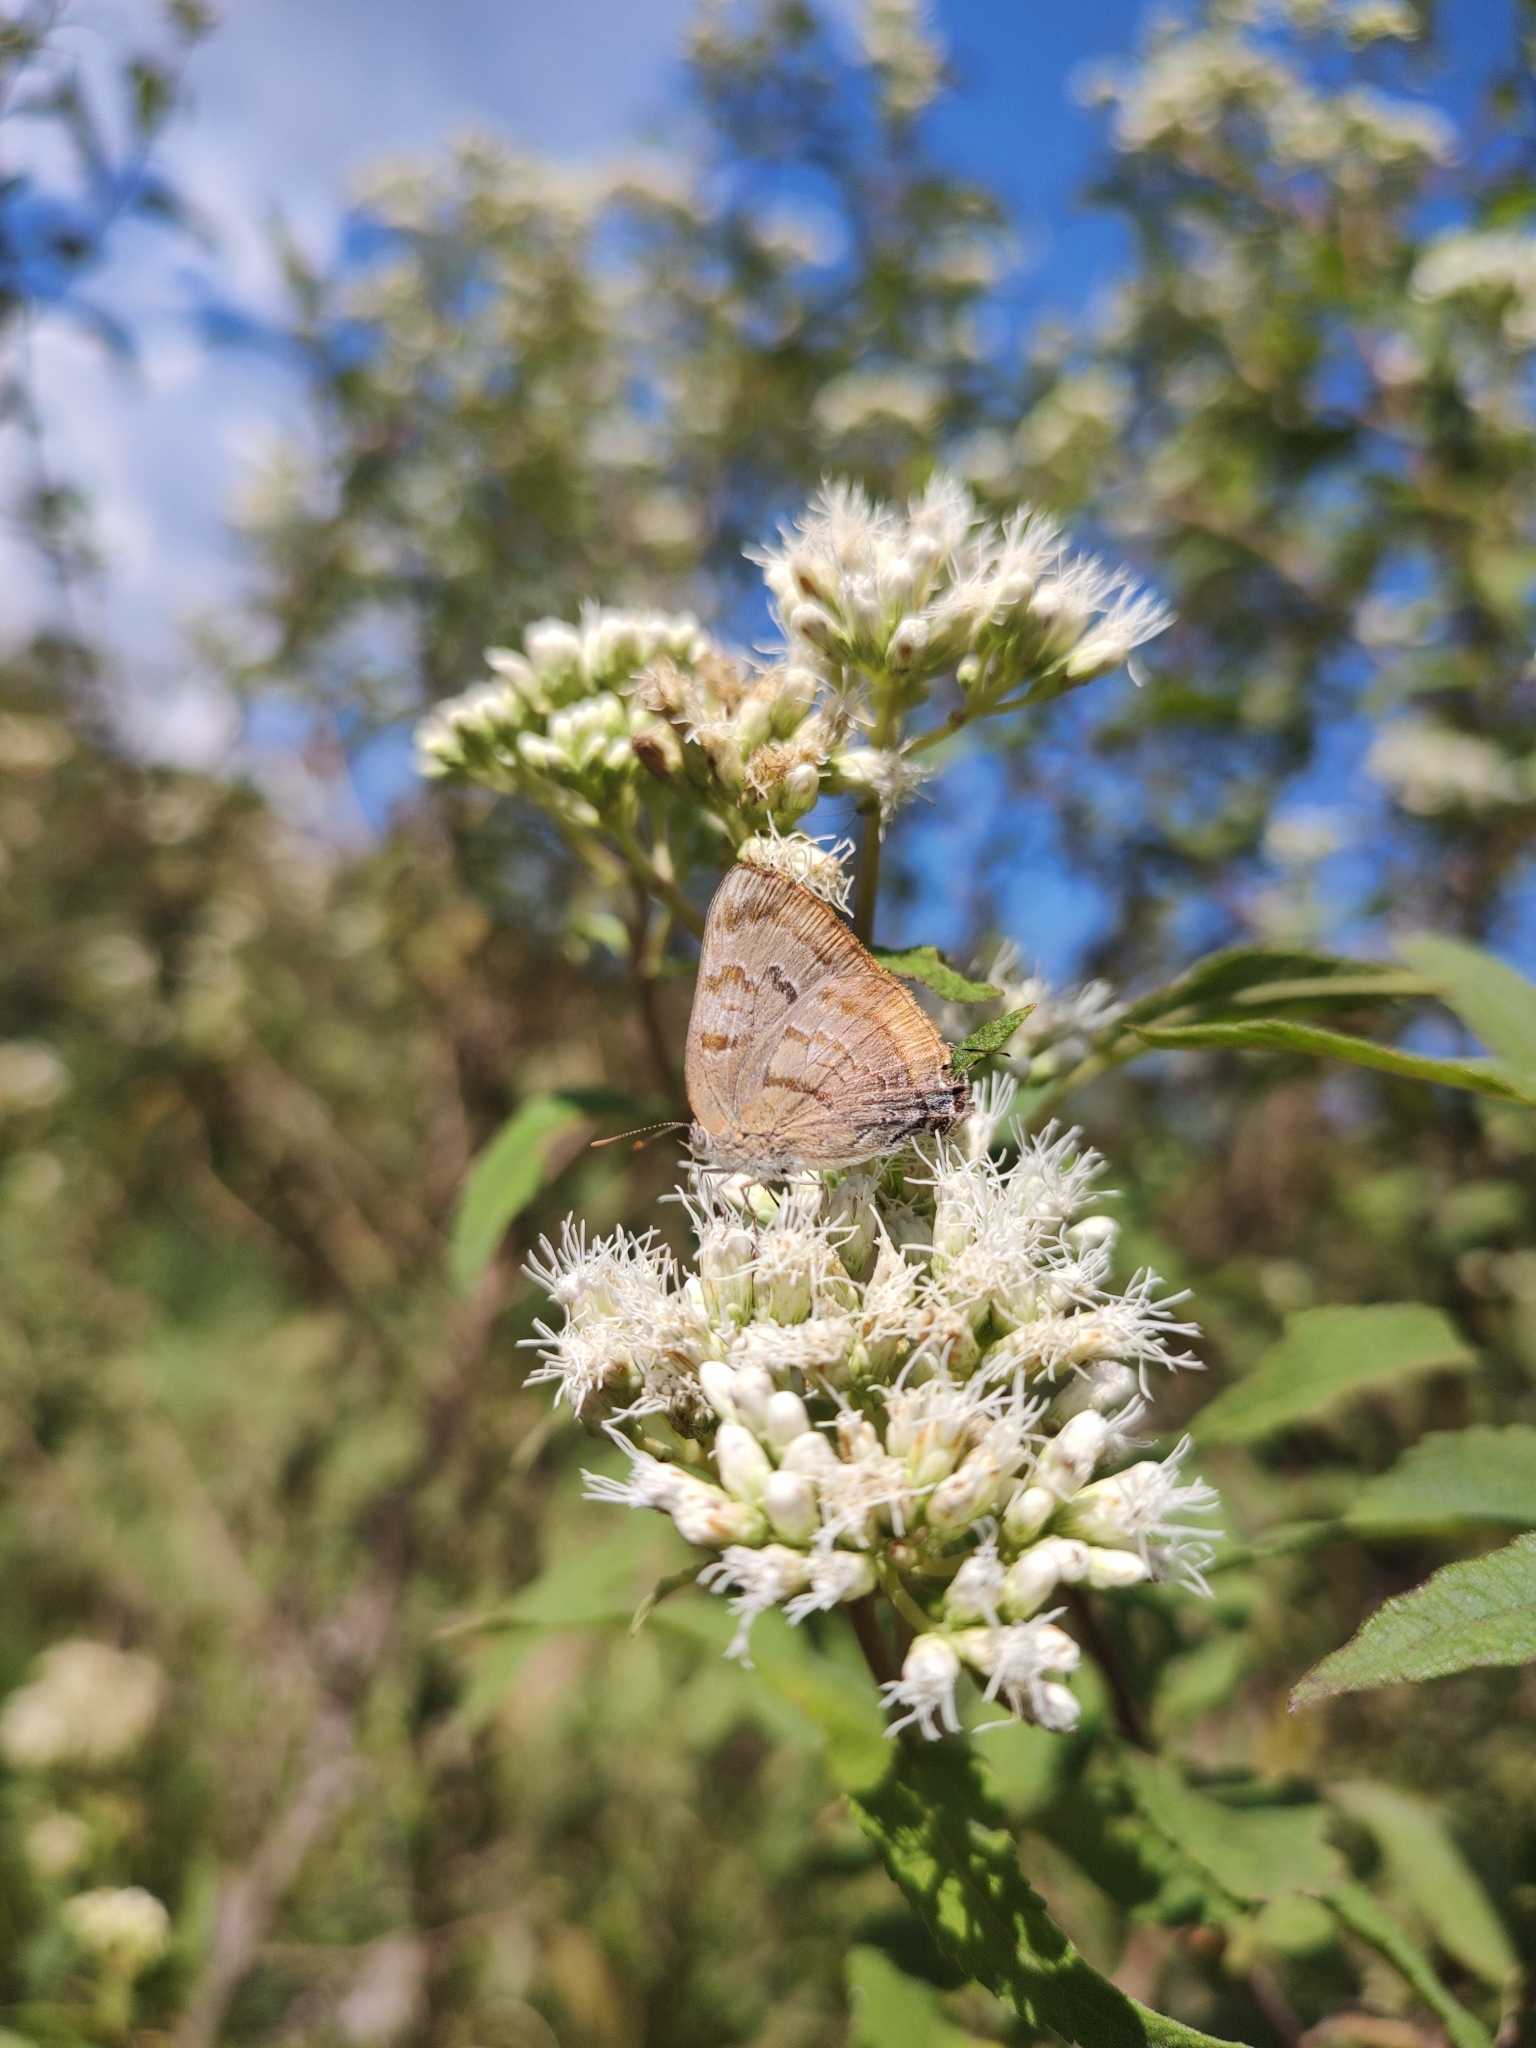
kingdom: Animalia
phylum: Arthropoda
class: Insecta
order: Lepidoptera
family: Lycaenidae
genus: Rekoa
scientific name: Rekoa palegon
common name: Gold-bordered hairstreak
